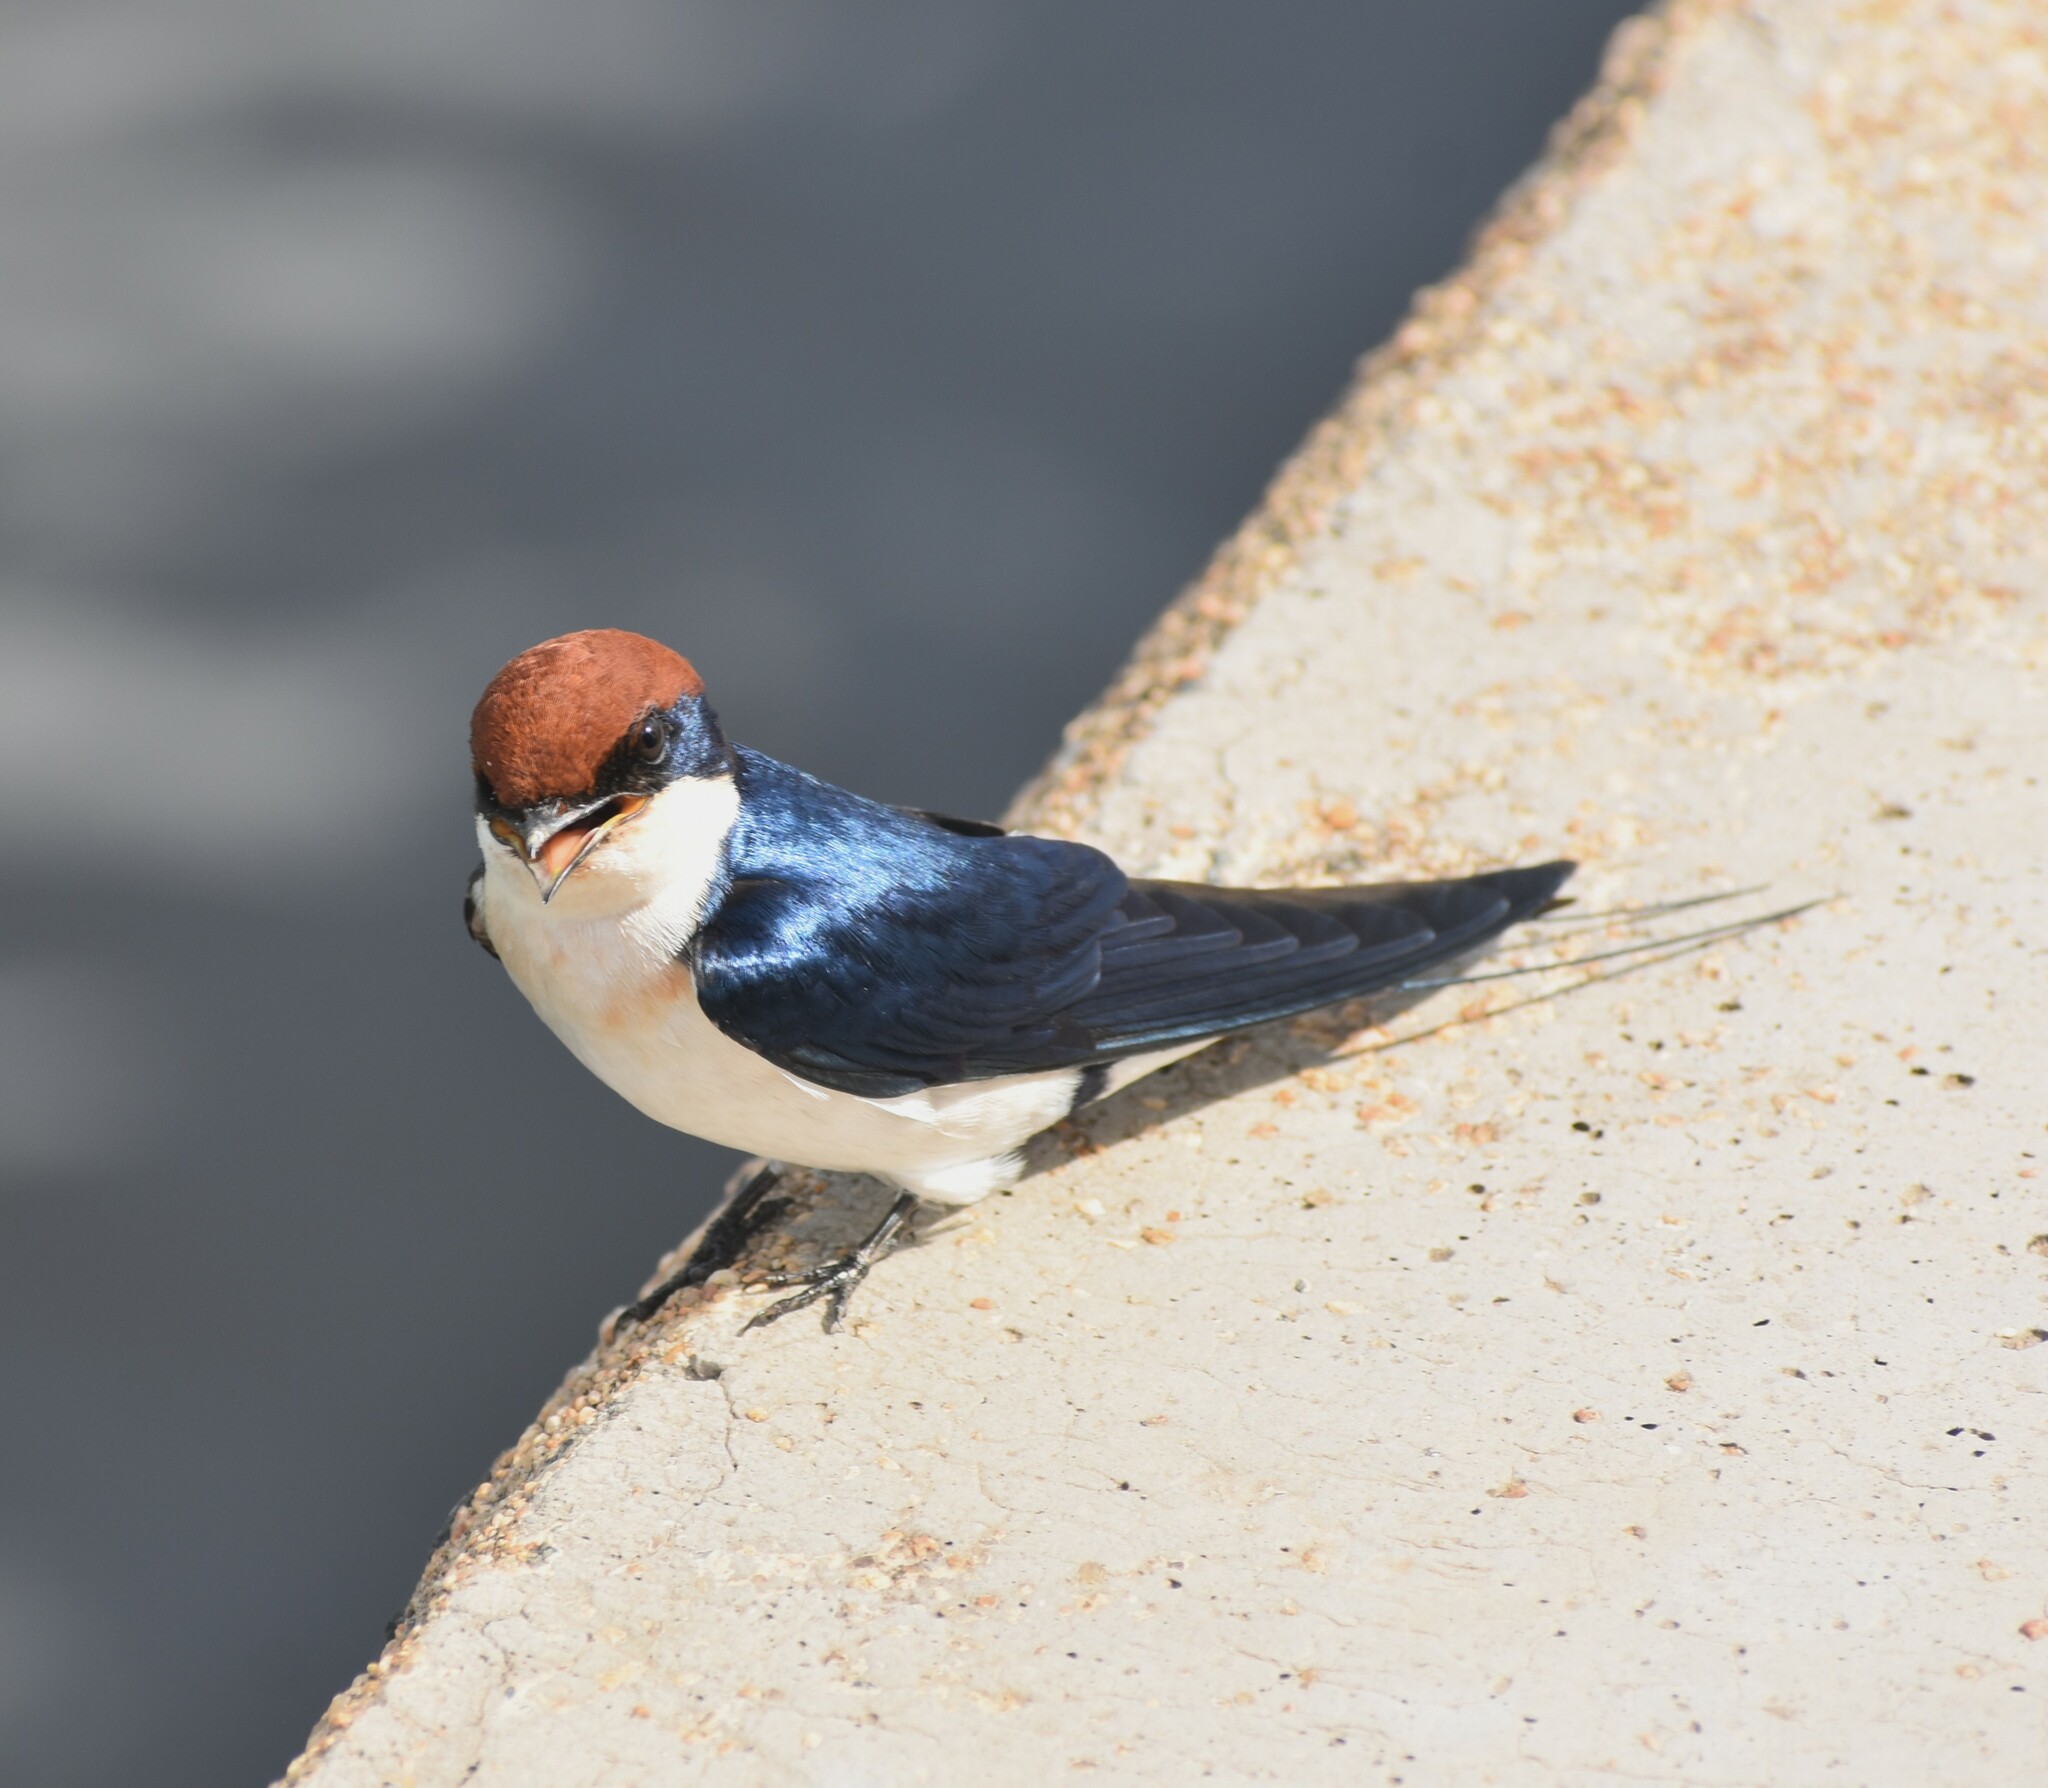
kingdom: Animalia
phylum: Chordata
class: Aves
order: Passeriformes
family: Hirundinidae
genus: Hirundo
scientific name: Hirundo smithii
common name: Wire-tailed swallow
